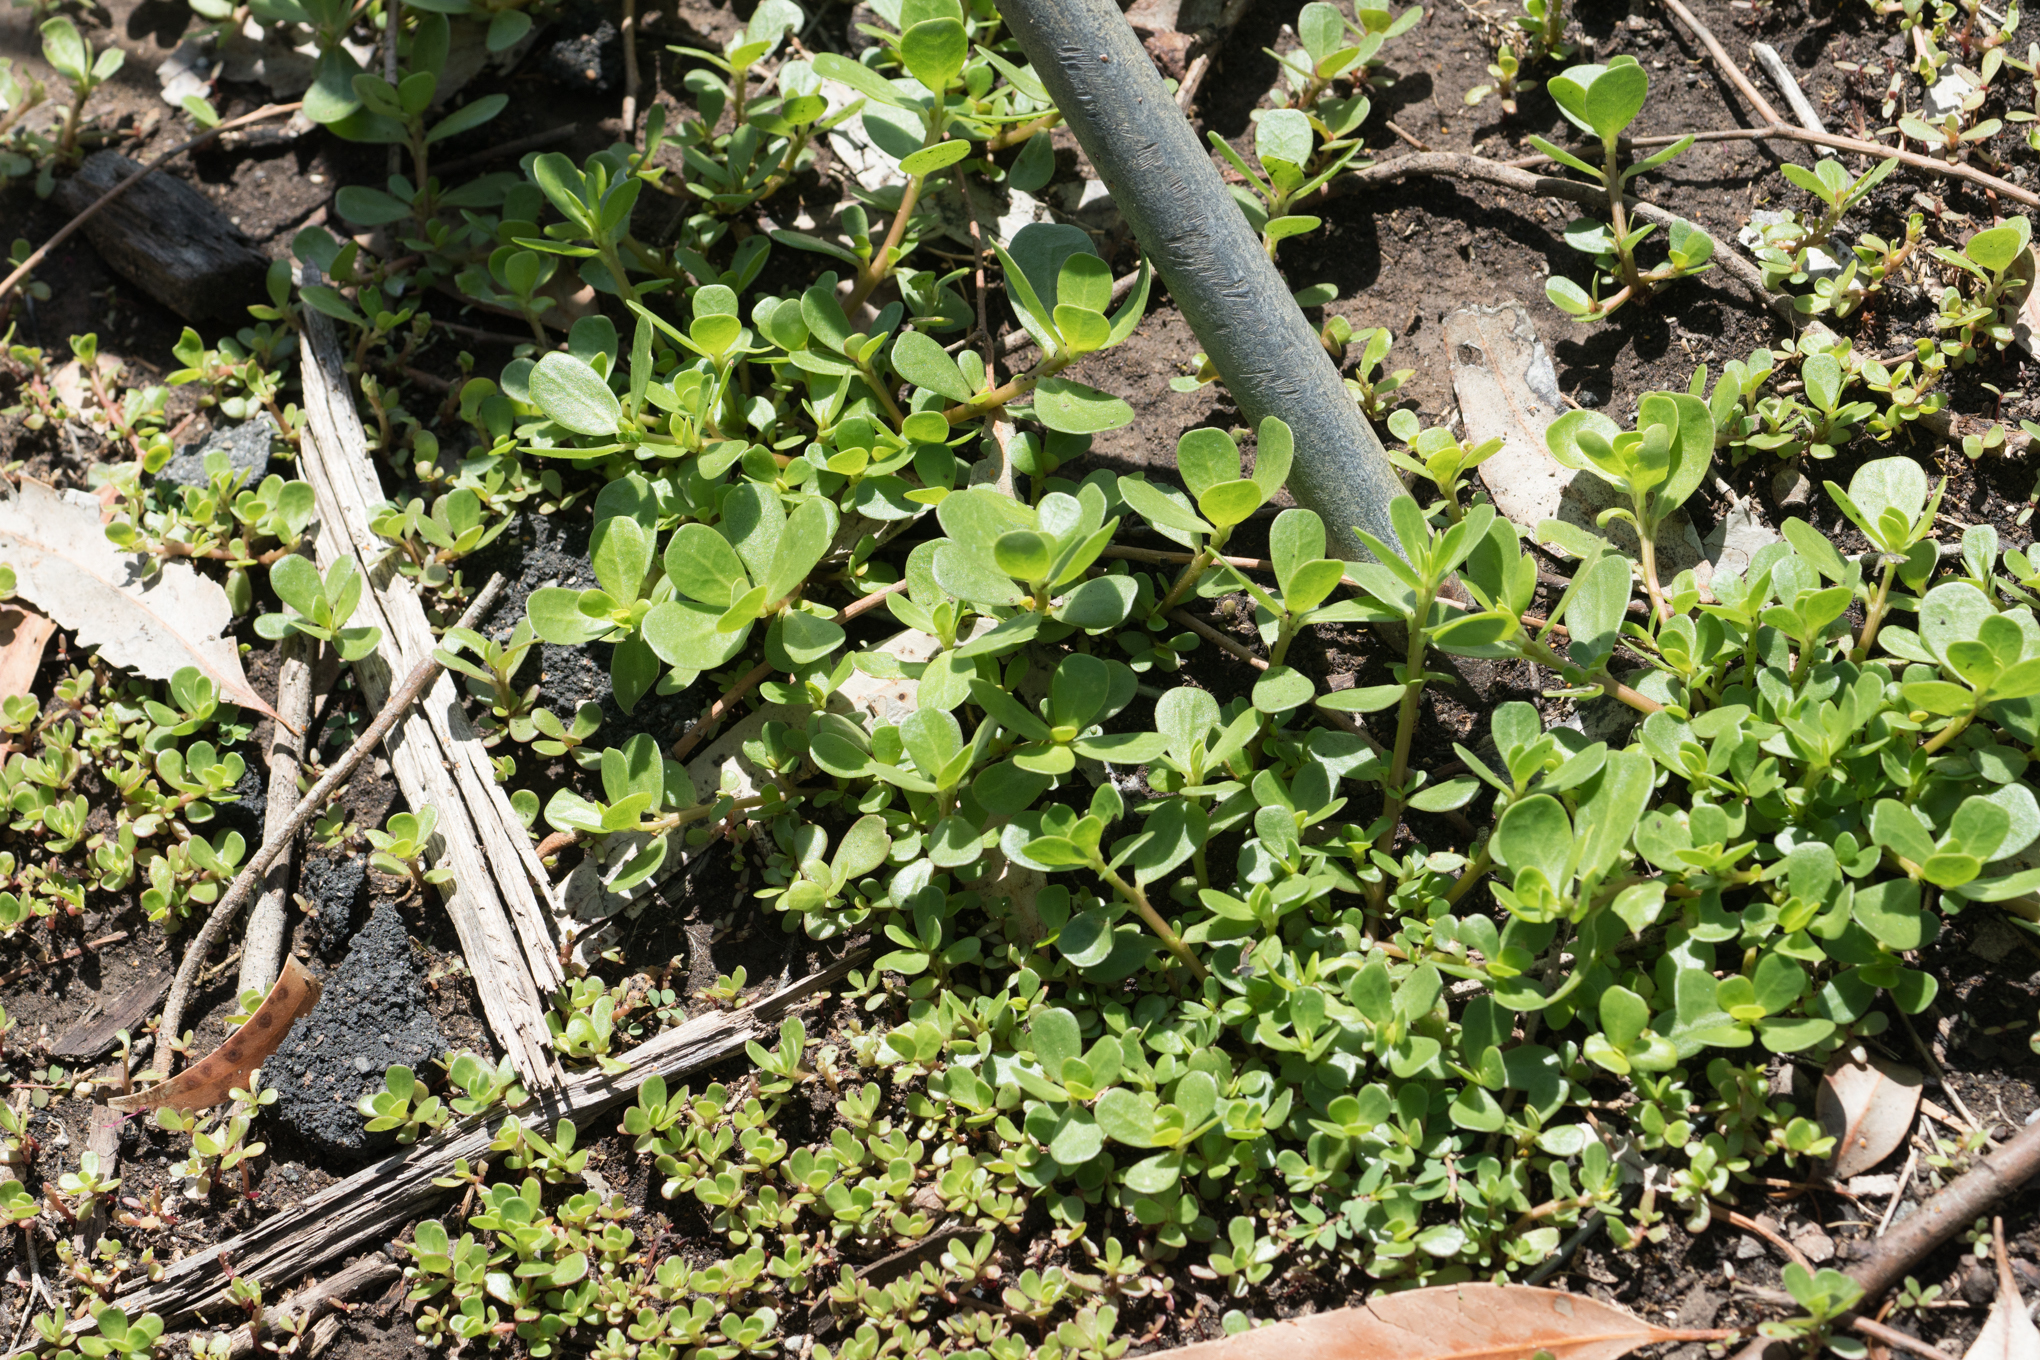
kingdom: Plantae
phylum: Tracheophyta
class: Magnoliopsida
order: Caryophyllales
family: Portulacaceae
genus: Portulaca
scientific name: Portulaca oleracea
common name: Common purslane
